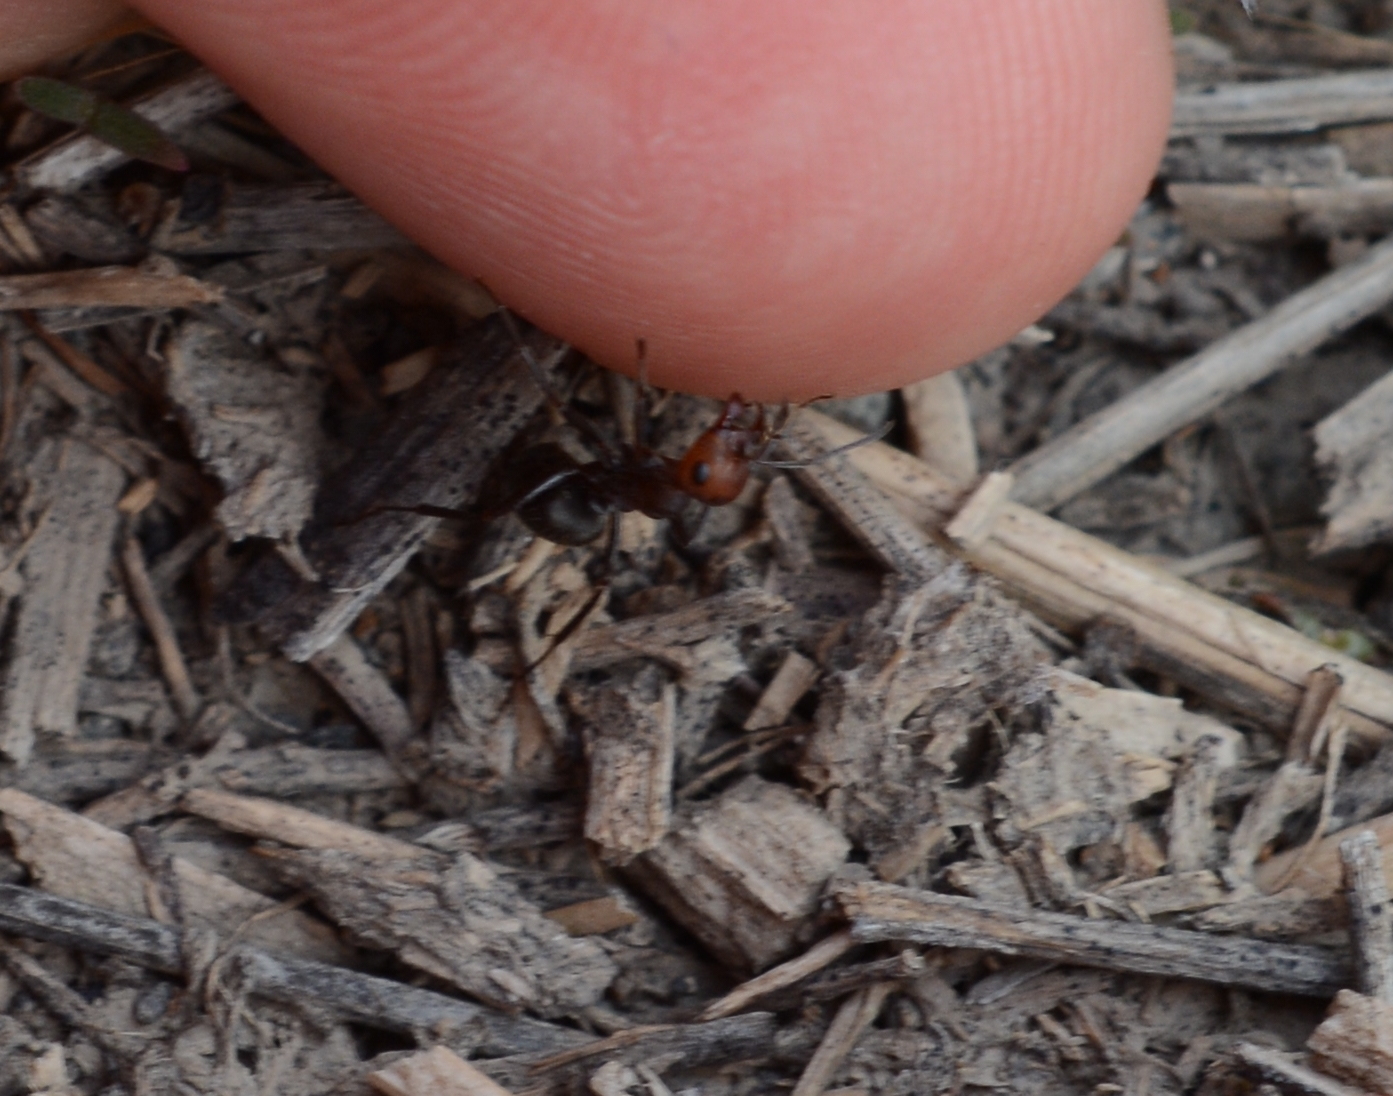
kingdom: Animalia
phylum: Arthropoda
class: Insecta
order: Hymenoptera
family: Formicidae
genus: Formica
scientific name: Formica obscuripes
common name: Western thatching ant
